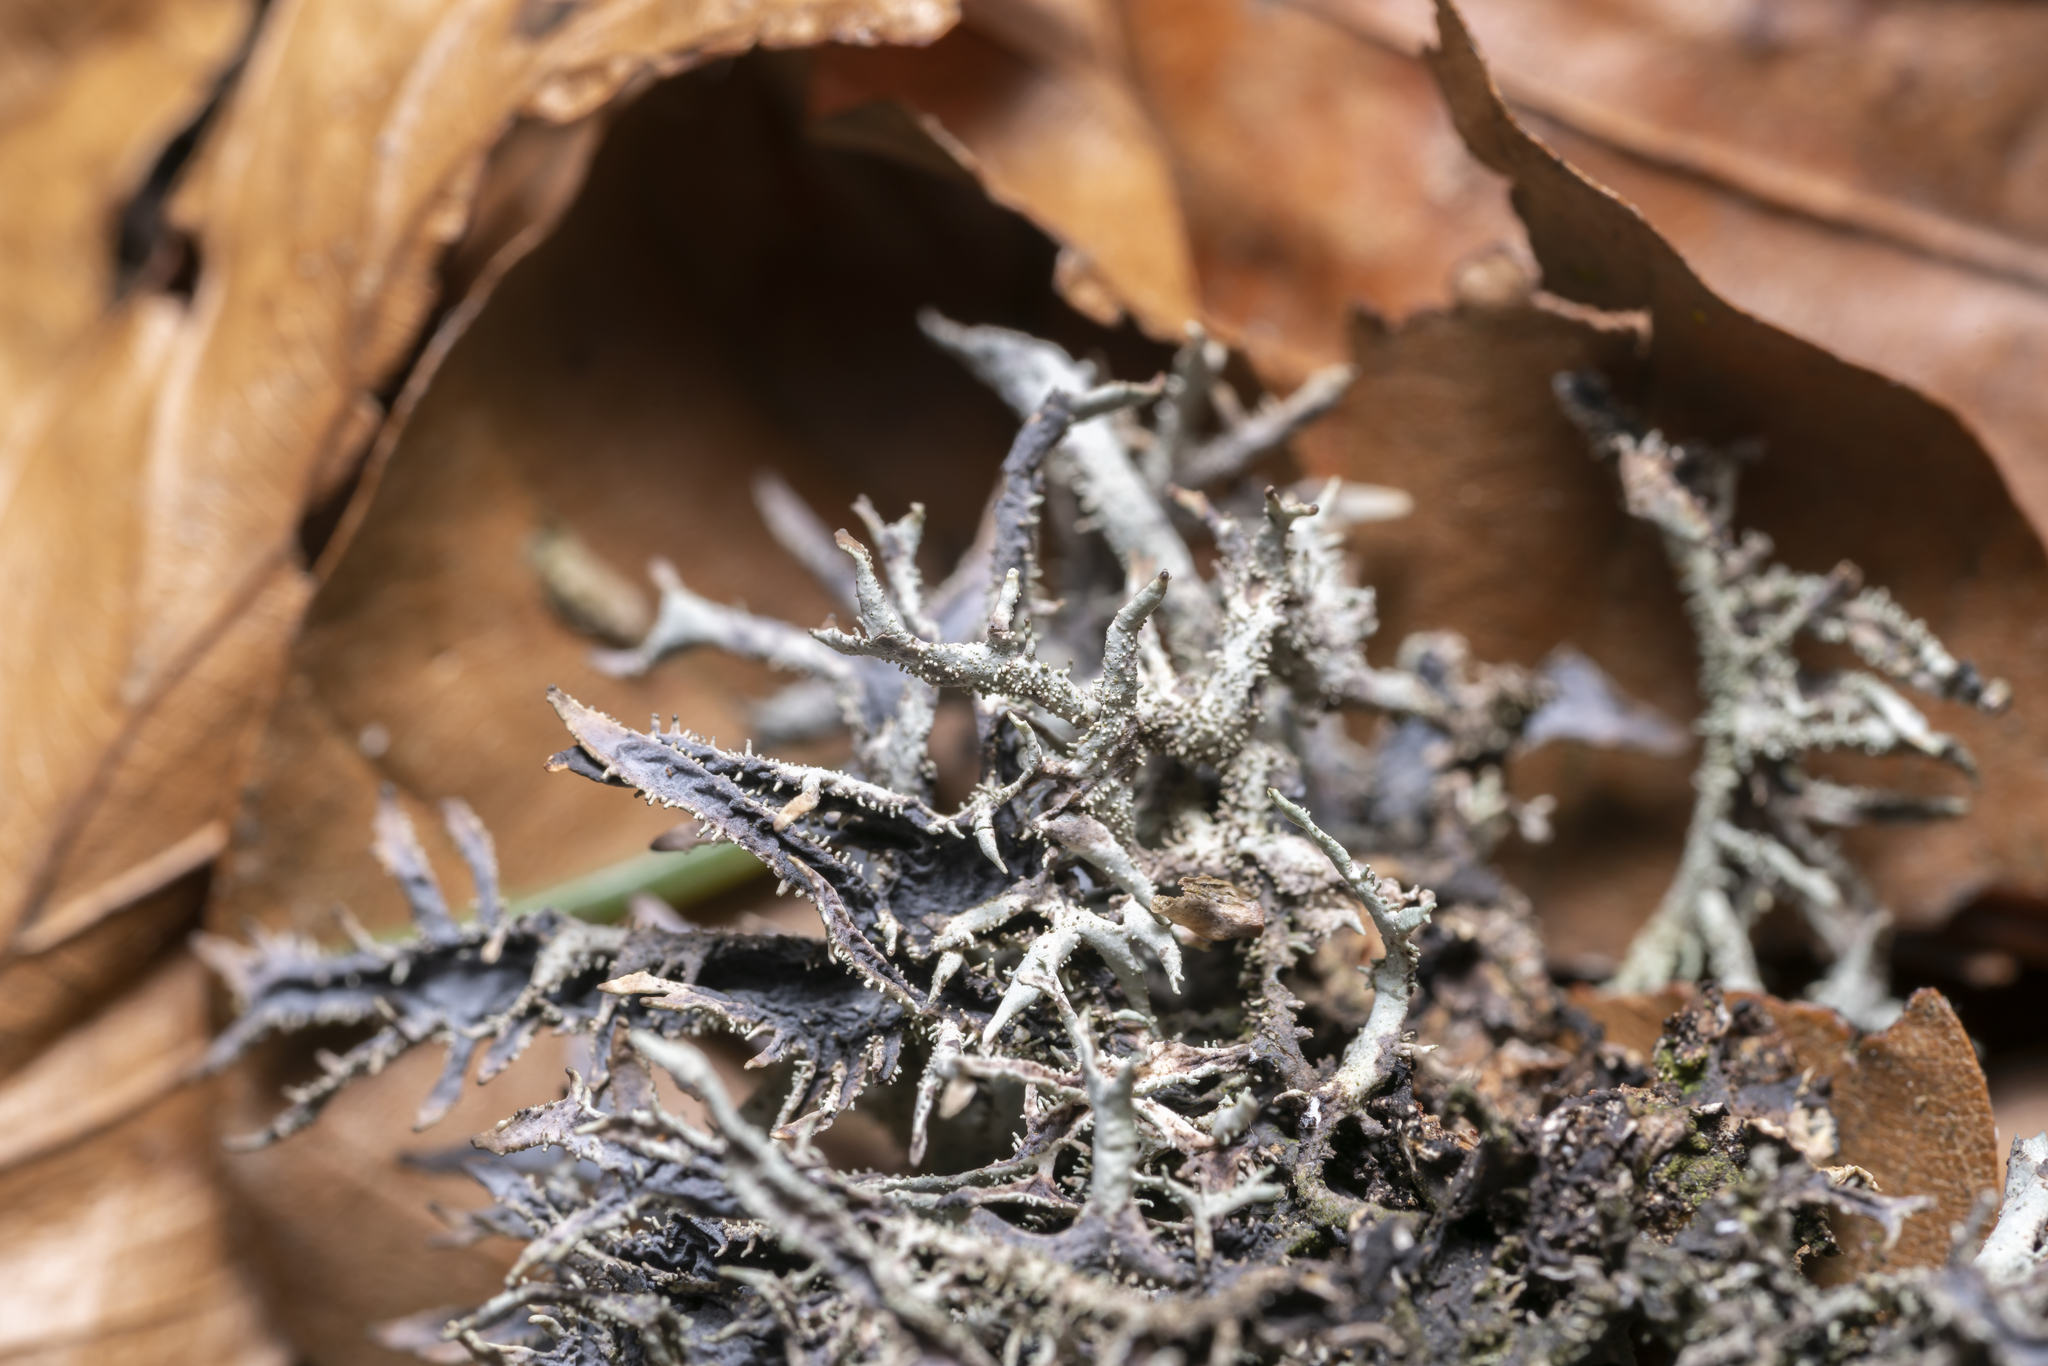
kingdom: Fungi
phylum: Ascomycota
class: Lecanoromycetes
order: Lecanorales
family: Parmeliaceae
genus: Pseudevernia
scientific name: Pseudevernia furfuracea
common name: Tree moss
